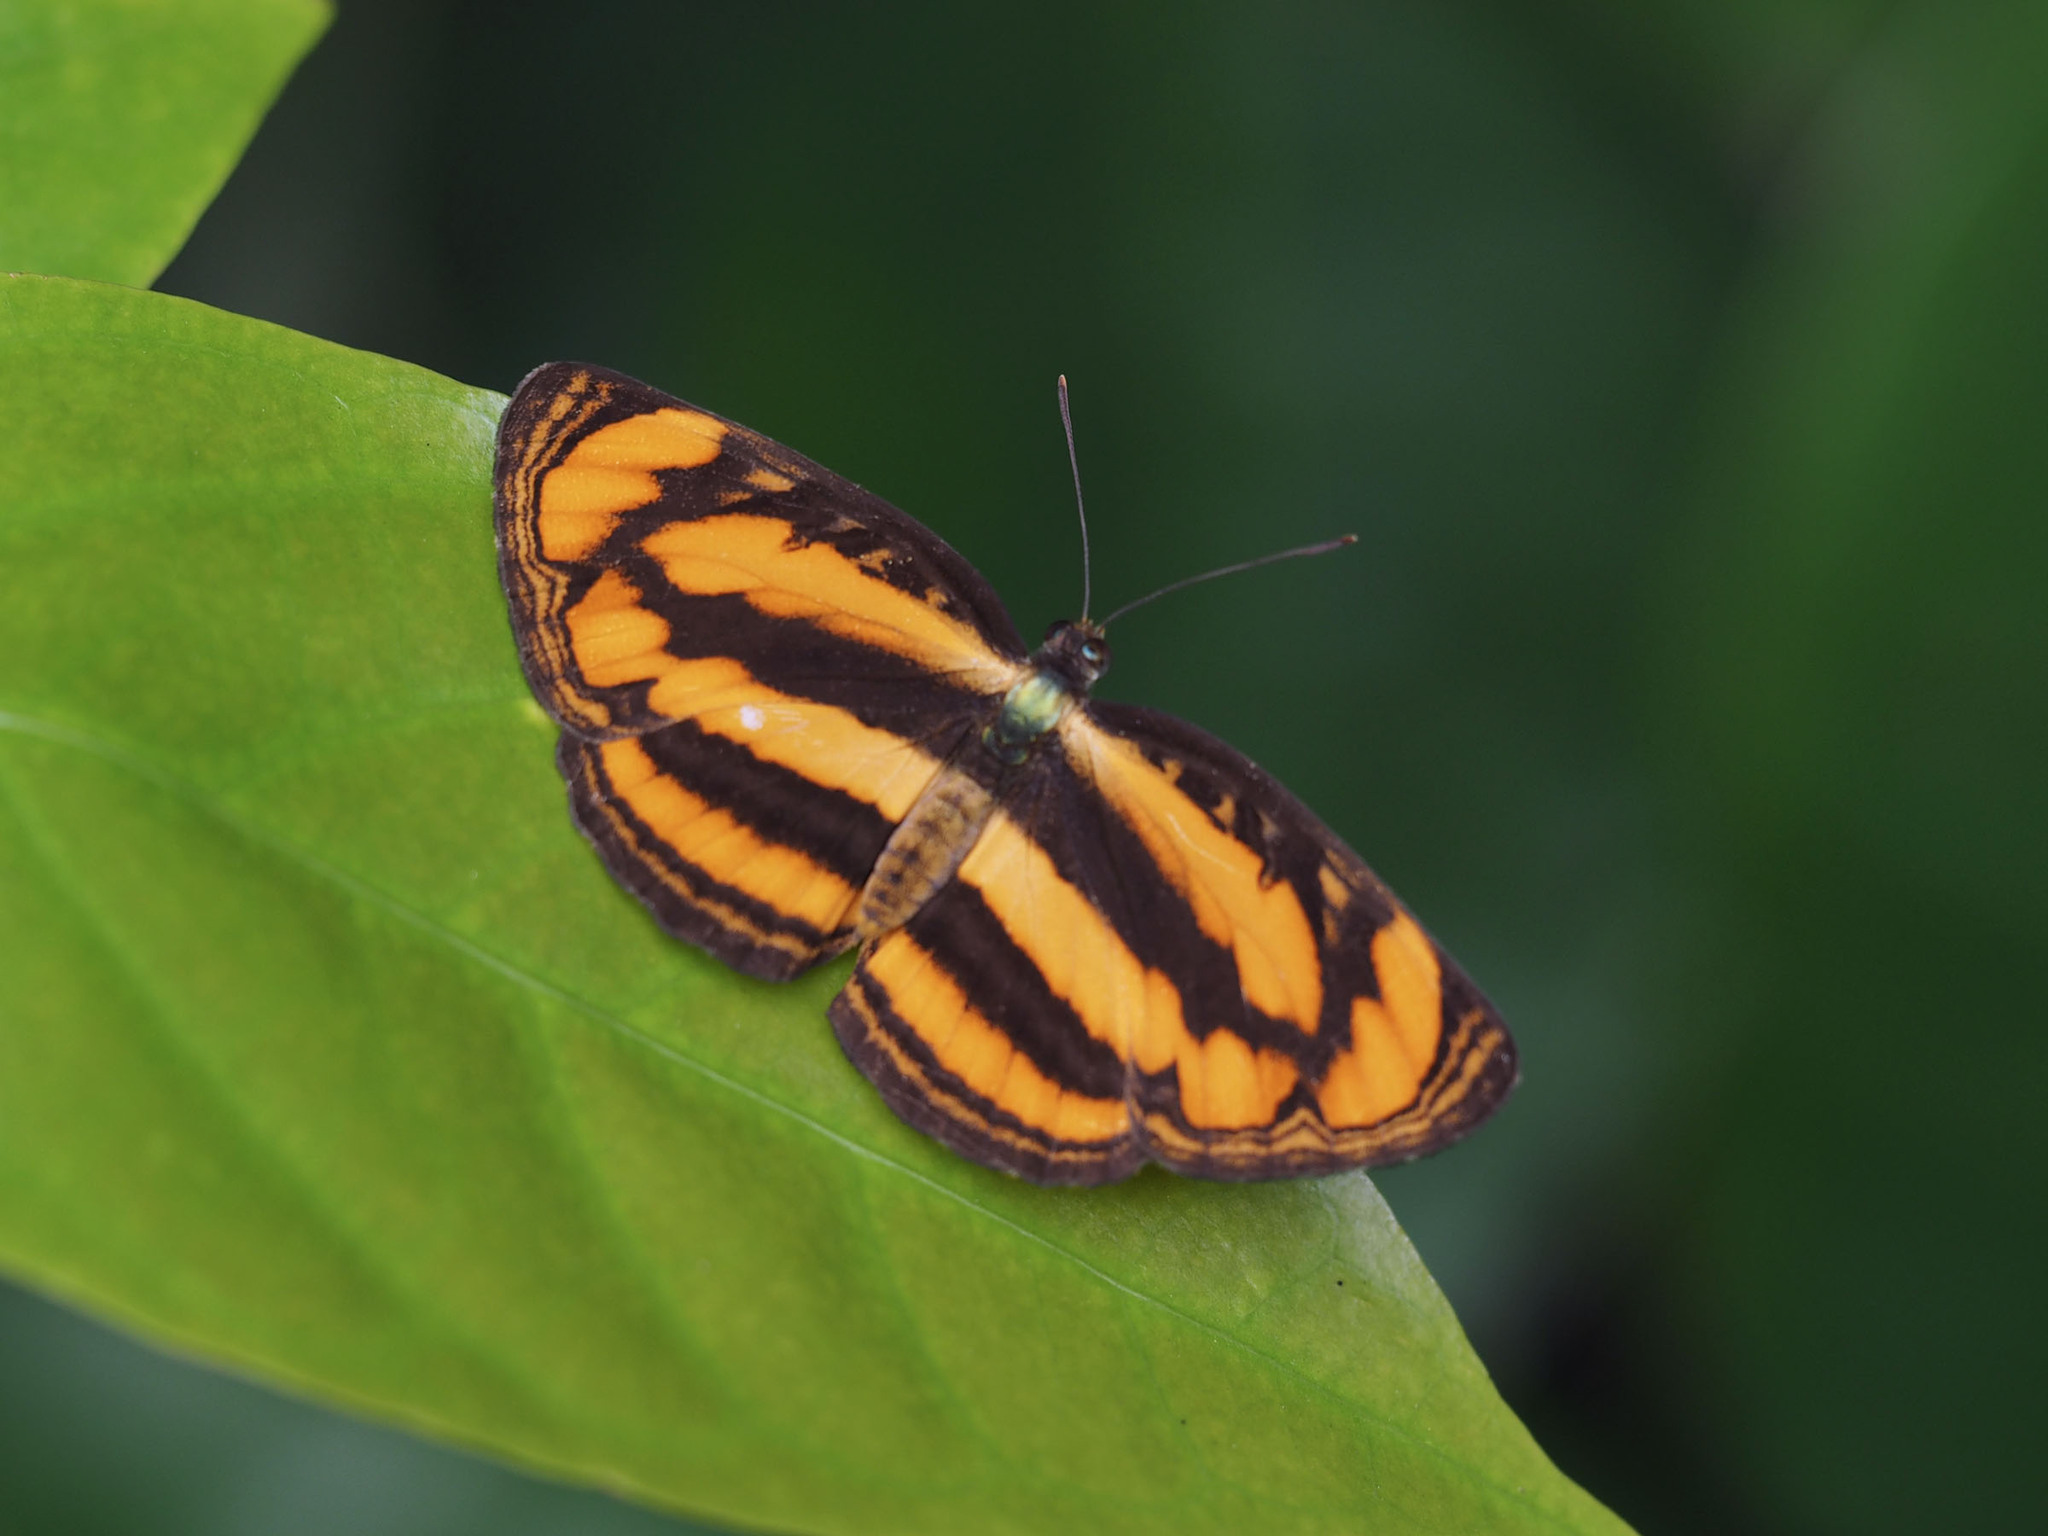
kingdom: Animalia
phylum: Arthropoda
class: Insecta
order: Lepidoptera
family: Nymphalidae
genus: Pantoporia
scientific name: Pantoporia paraka
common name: Perak lascar
